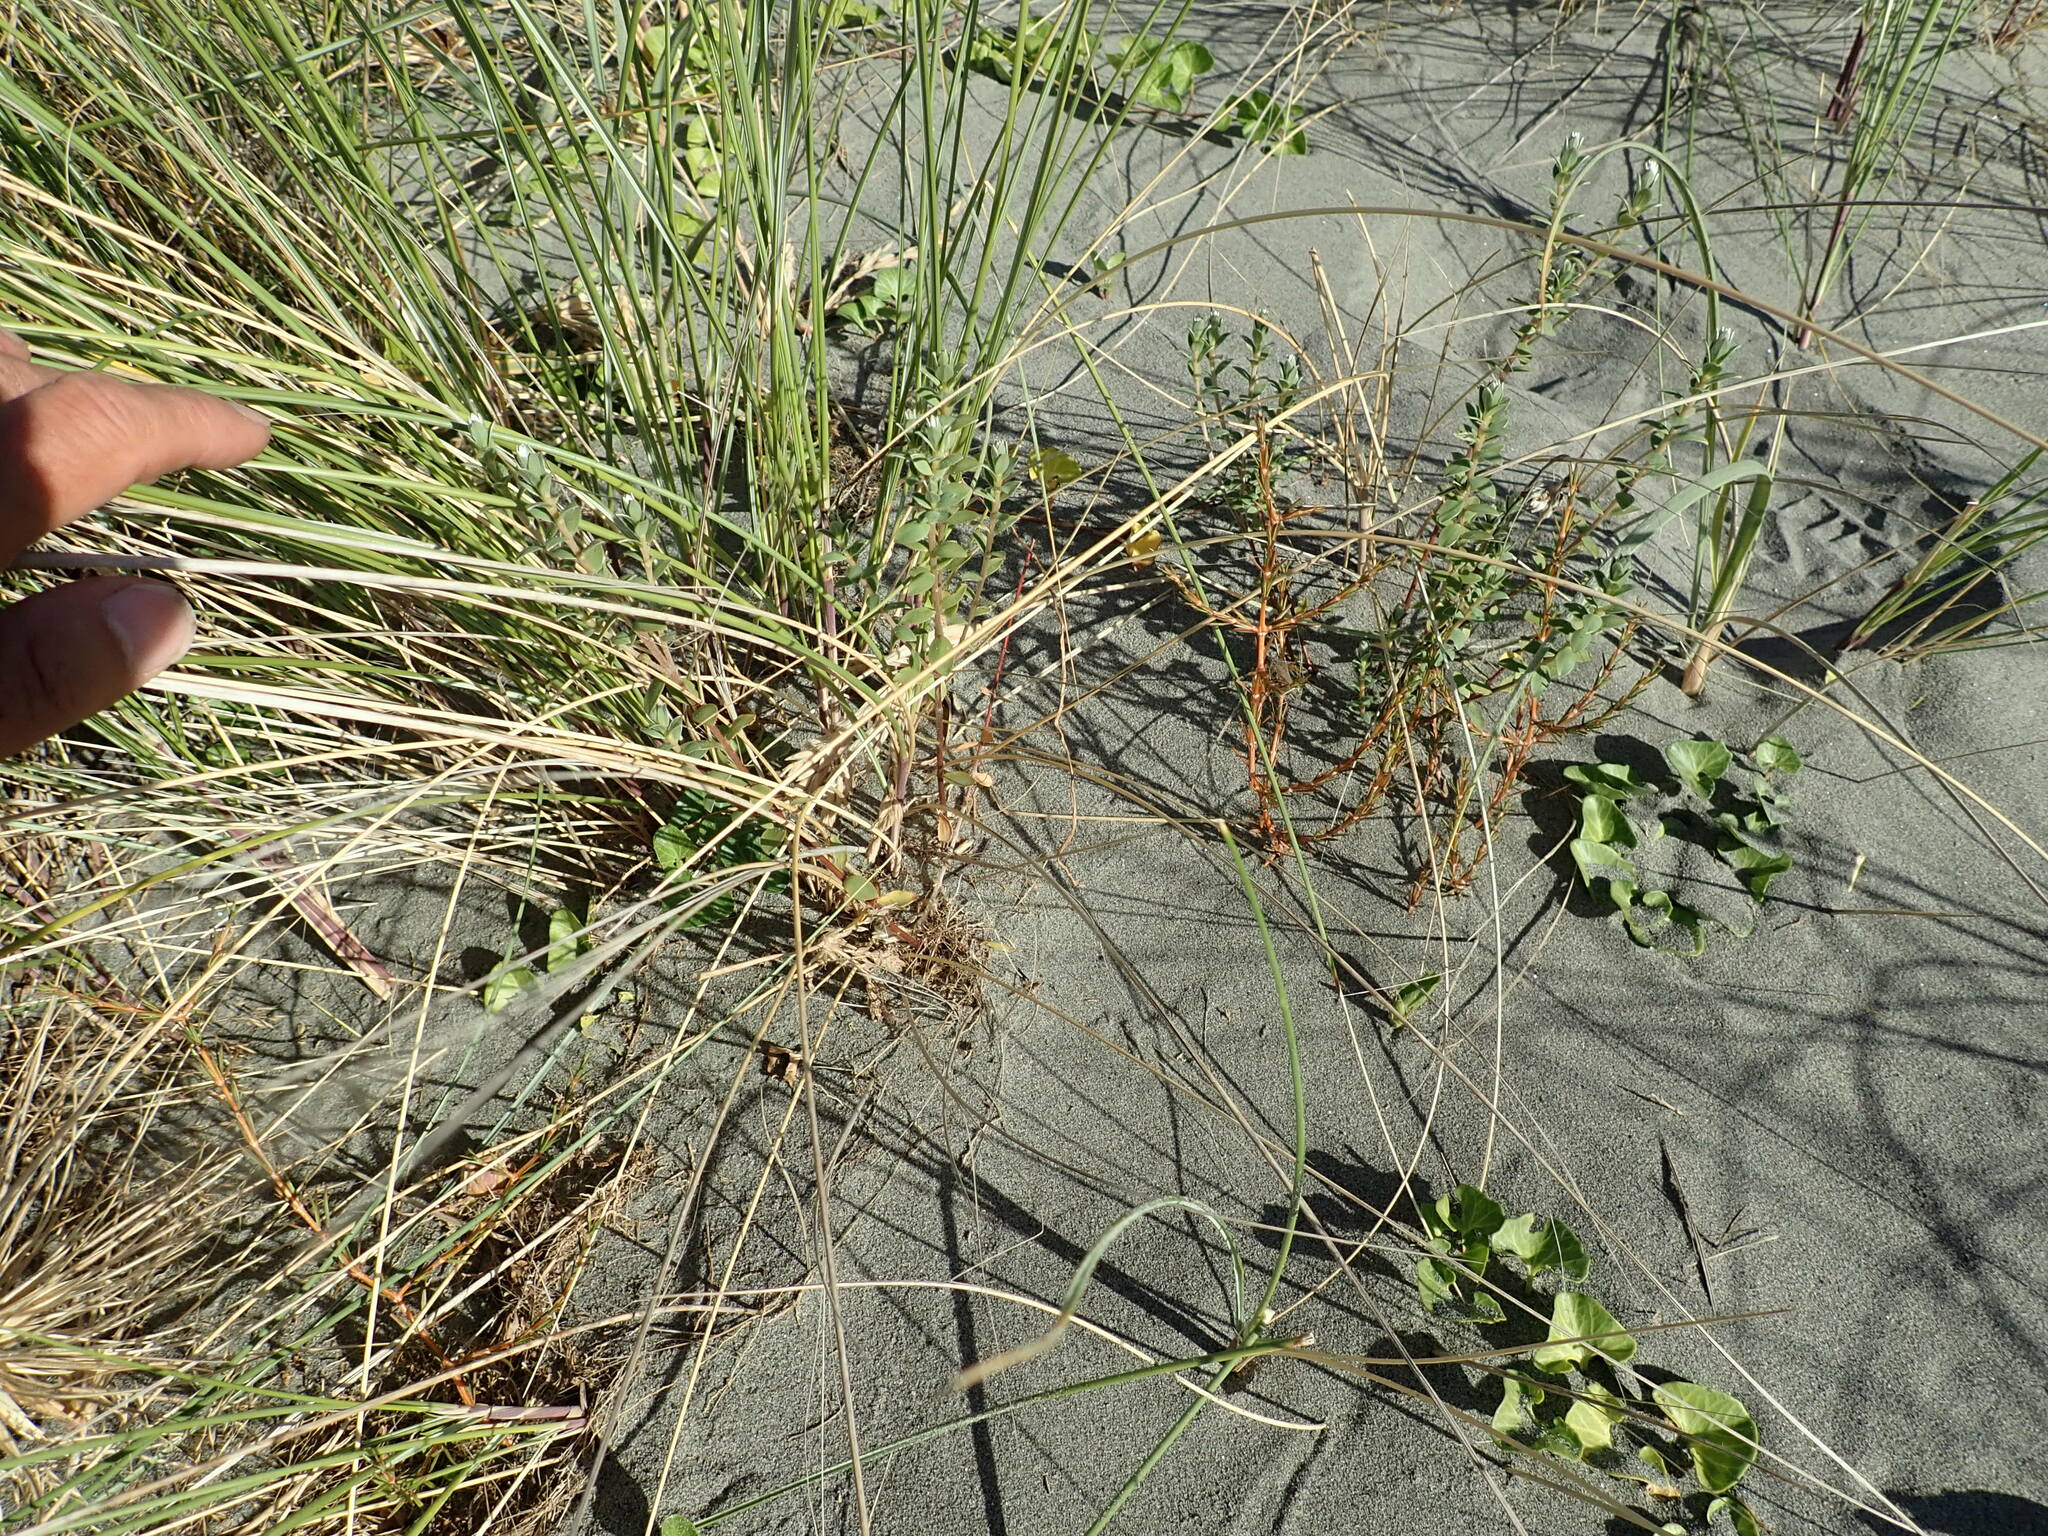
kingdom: Plantae
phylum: Tracheophyta
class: Magnoliopsida
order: Gentianales
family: Rubiaceae
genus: Coprosma
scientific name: Coprosma acerosa
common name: Sand coprosma
